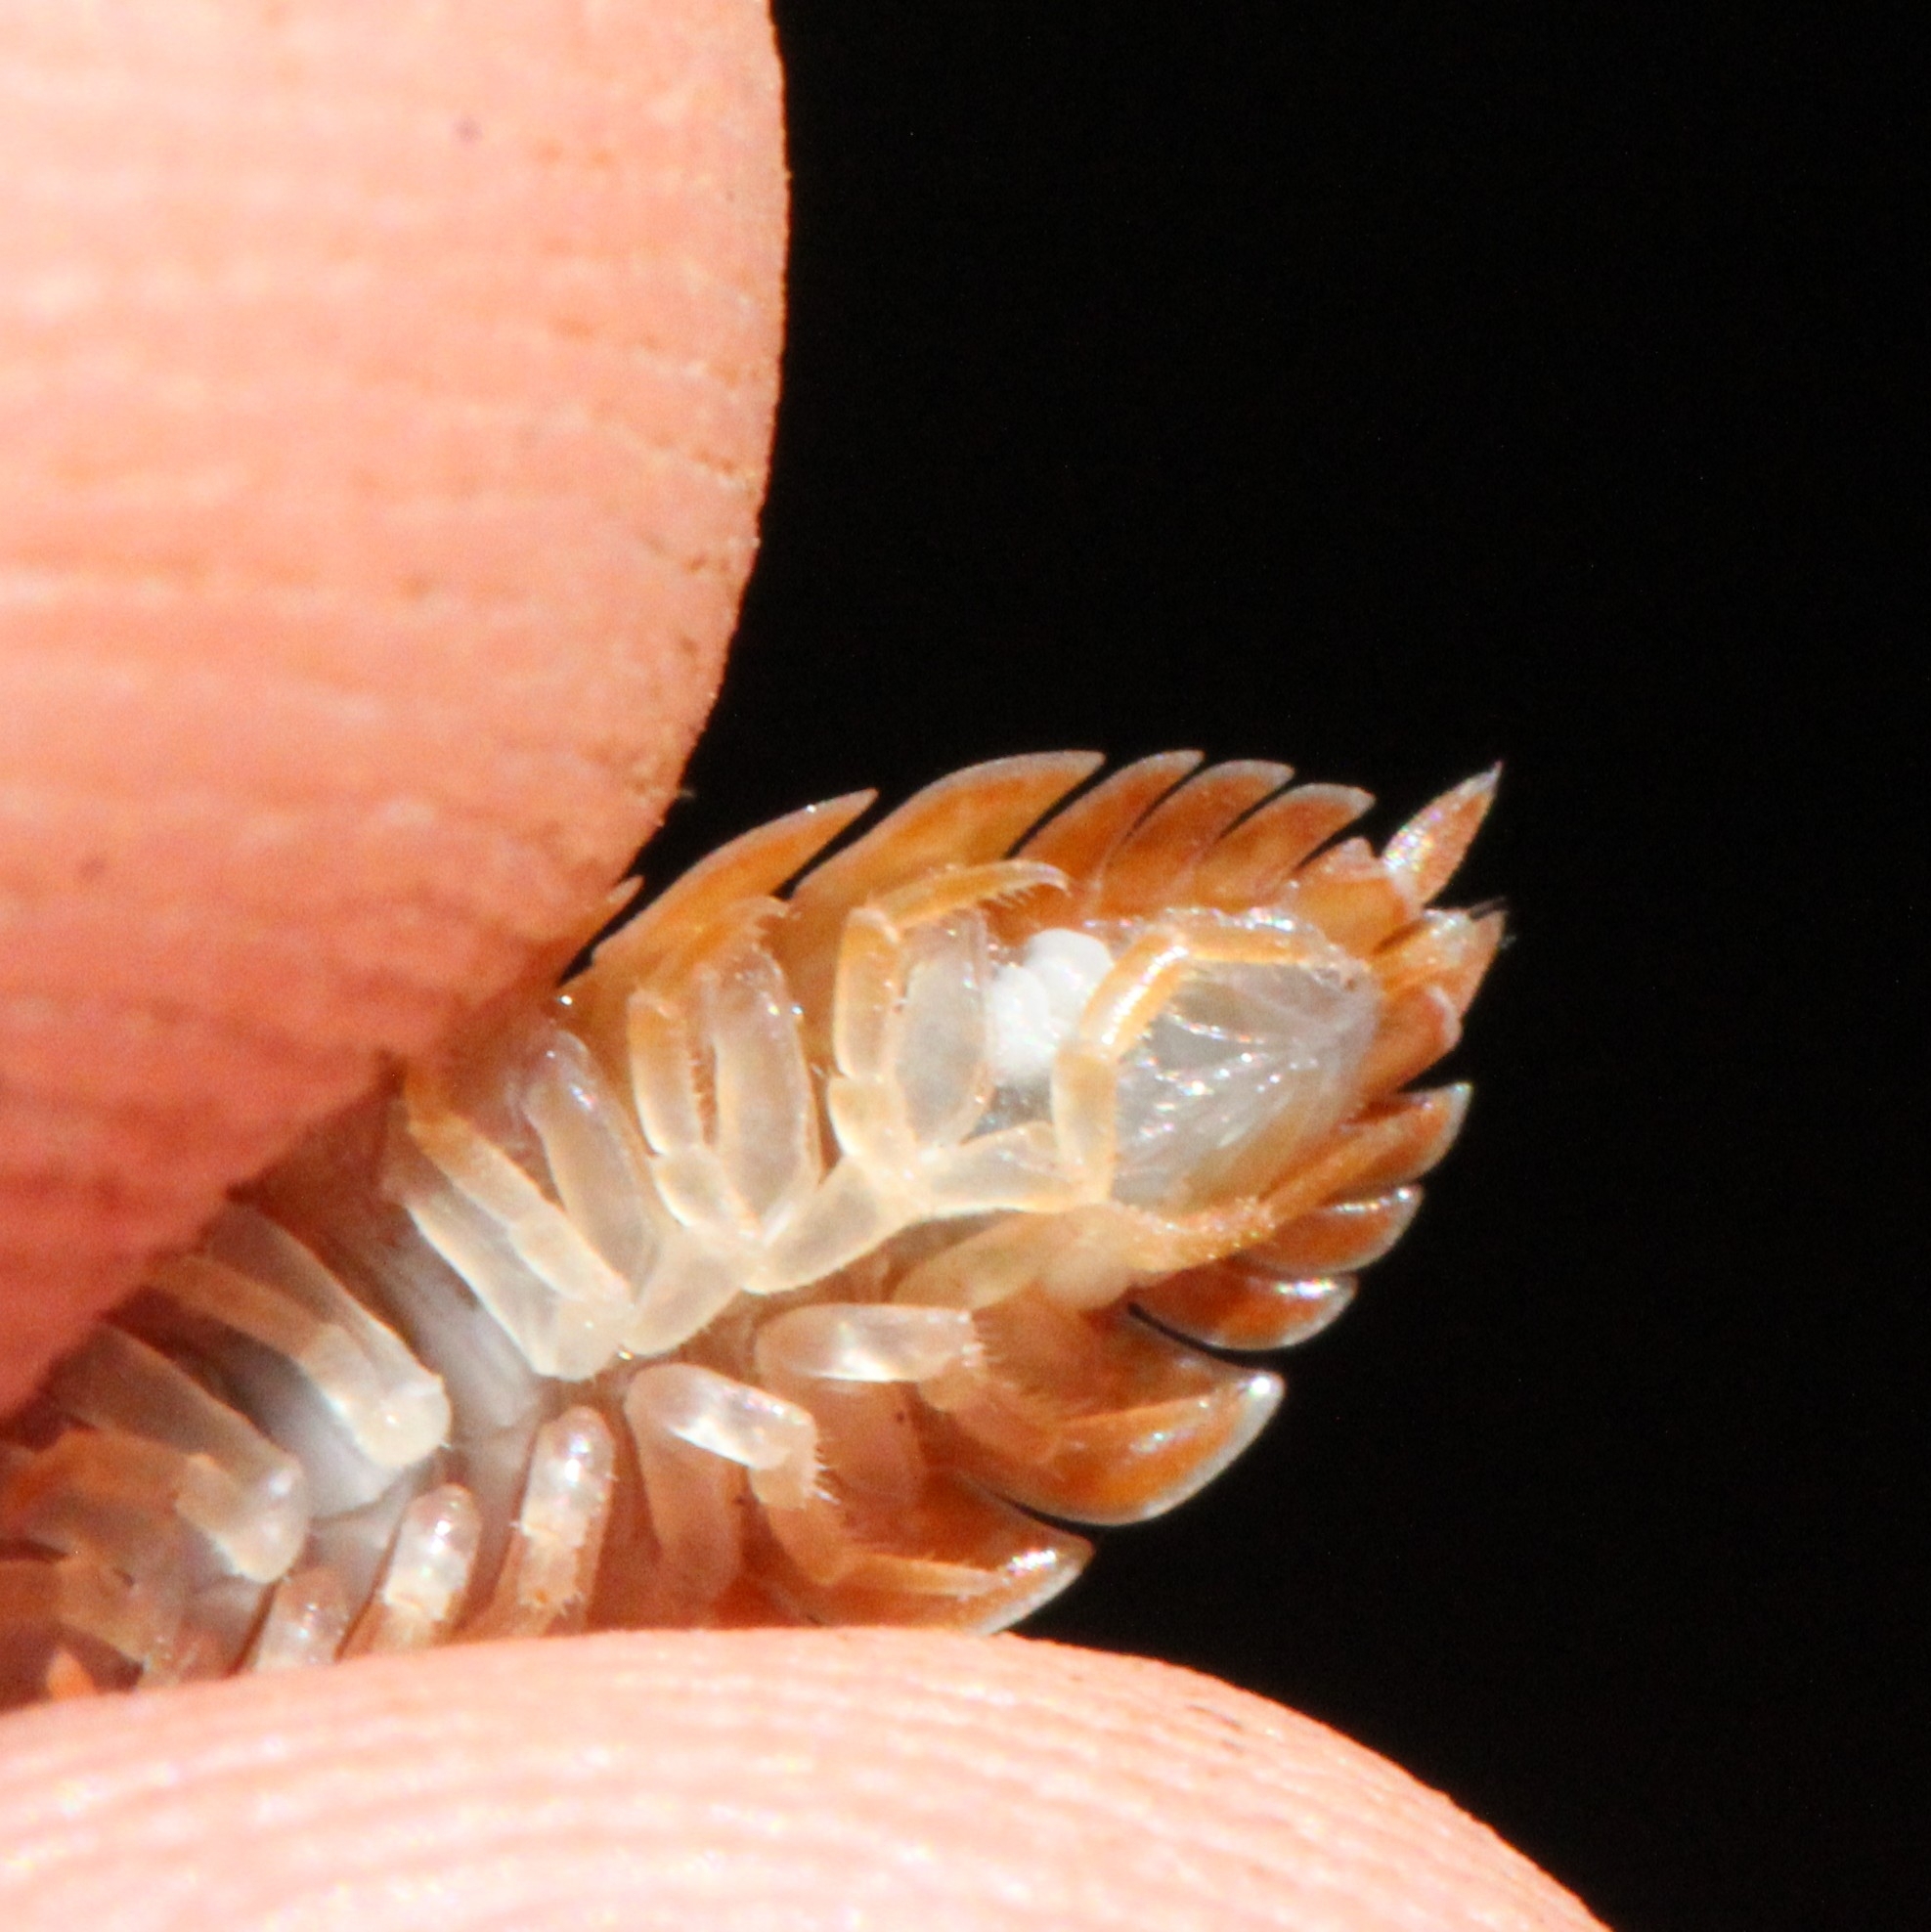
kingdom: Animalia
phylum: Arthropoda
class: Malacostraca
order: Isopoda
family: Porcellionidae
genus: Porcellio
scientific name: Porcellio scaber
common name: Common rough woodlouse
